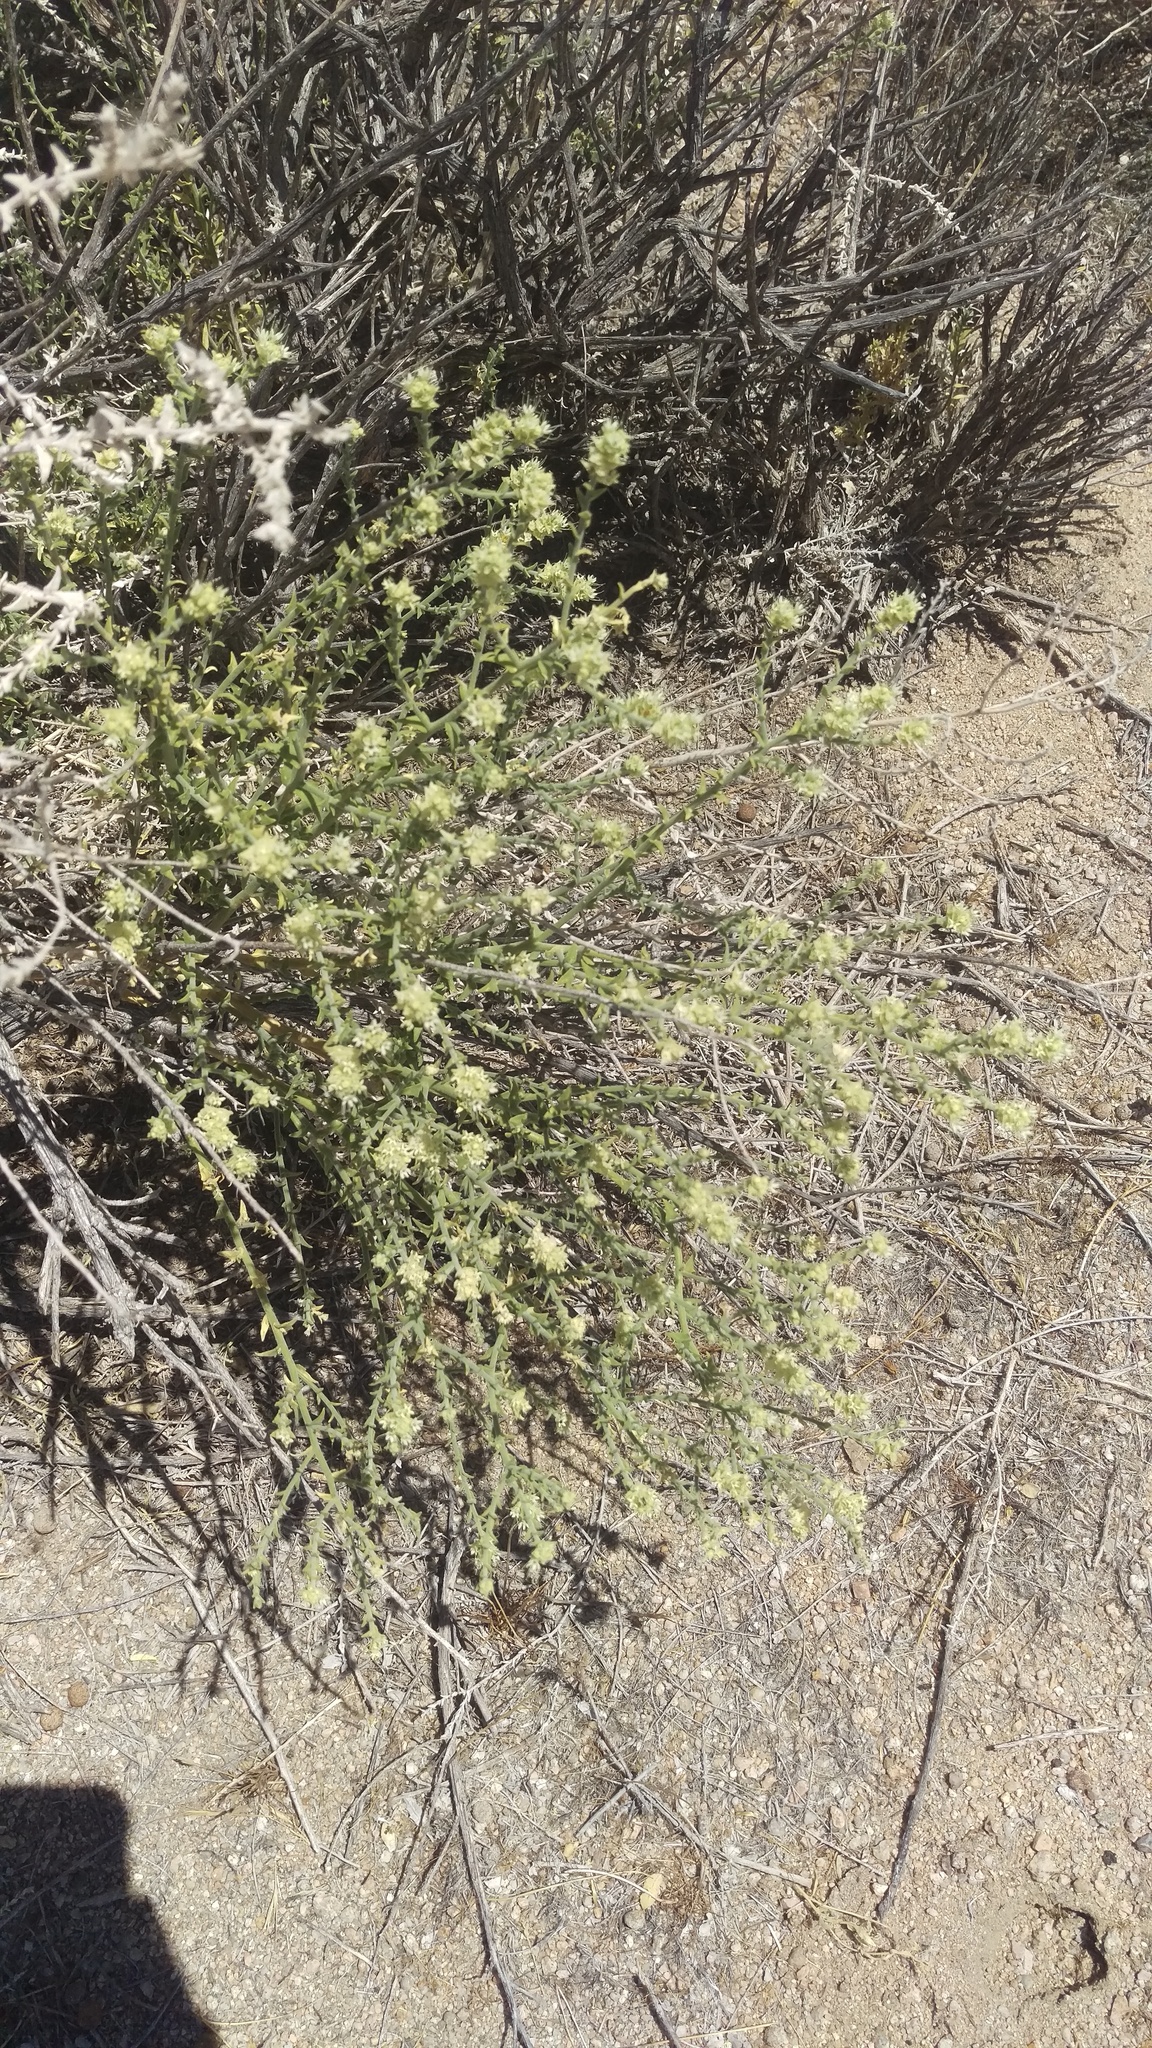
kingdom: Plantae
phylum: Tracheophyta
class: Magnoliopsida
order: Cornales
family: Loasaceae
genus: Petalonyx
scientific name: Petalonyx thurberi
